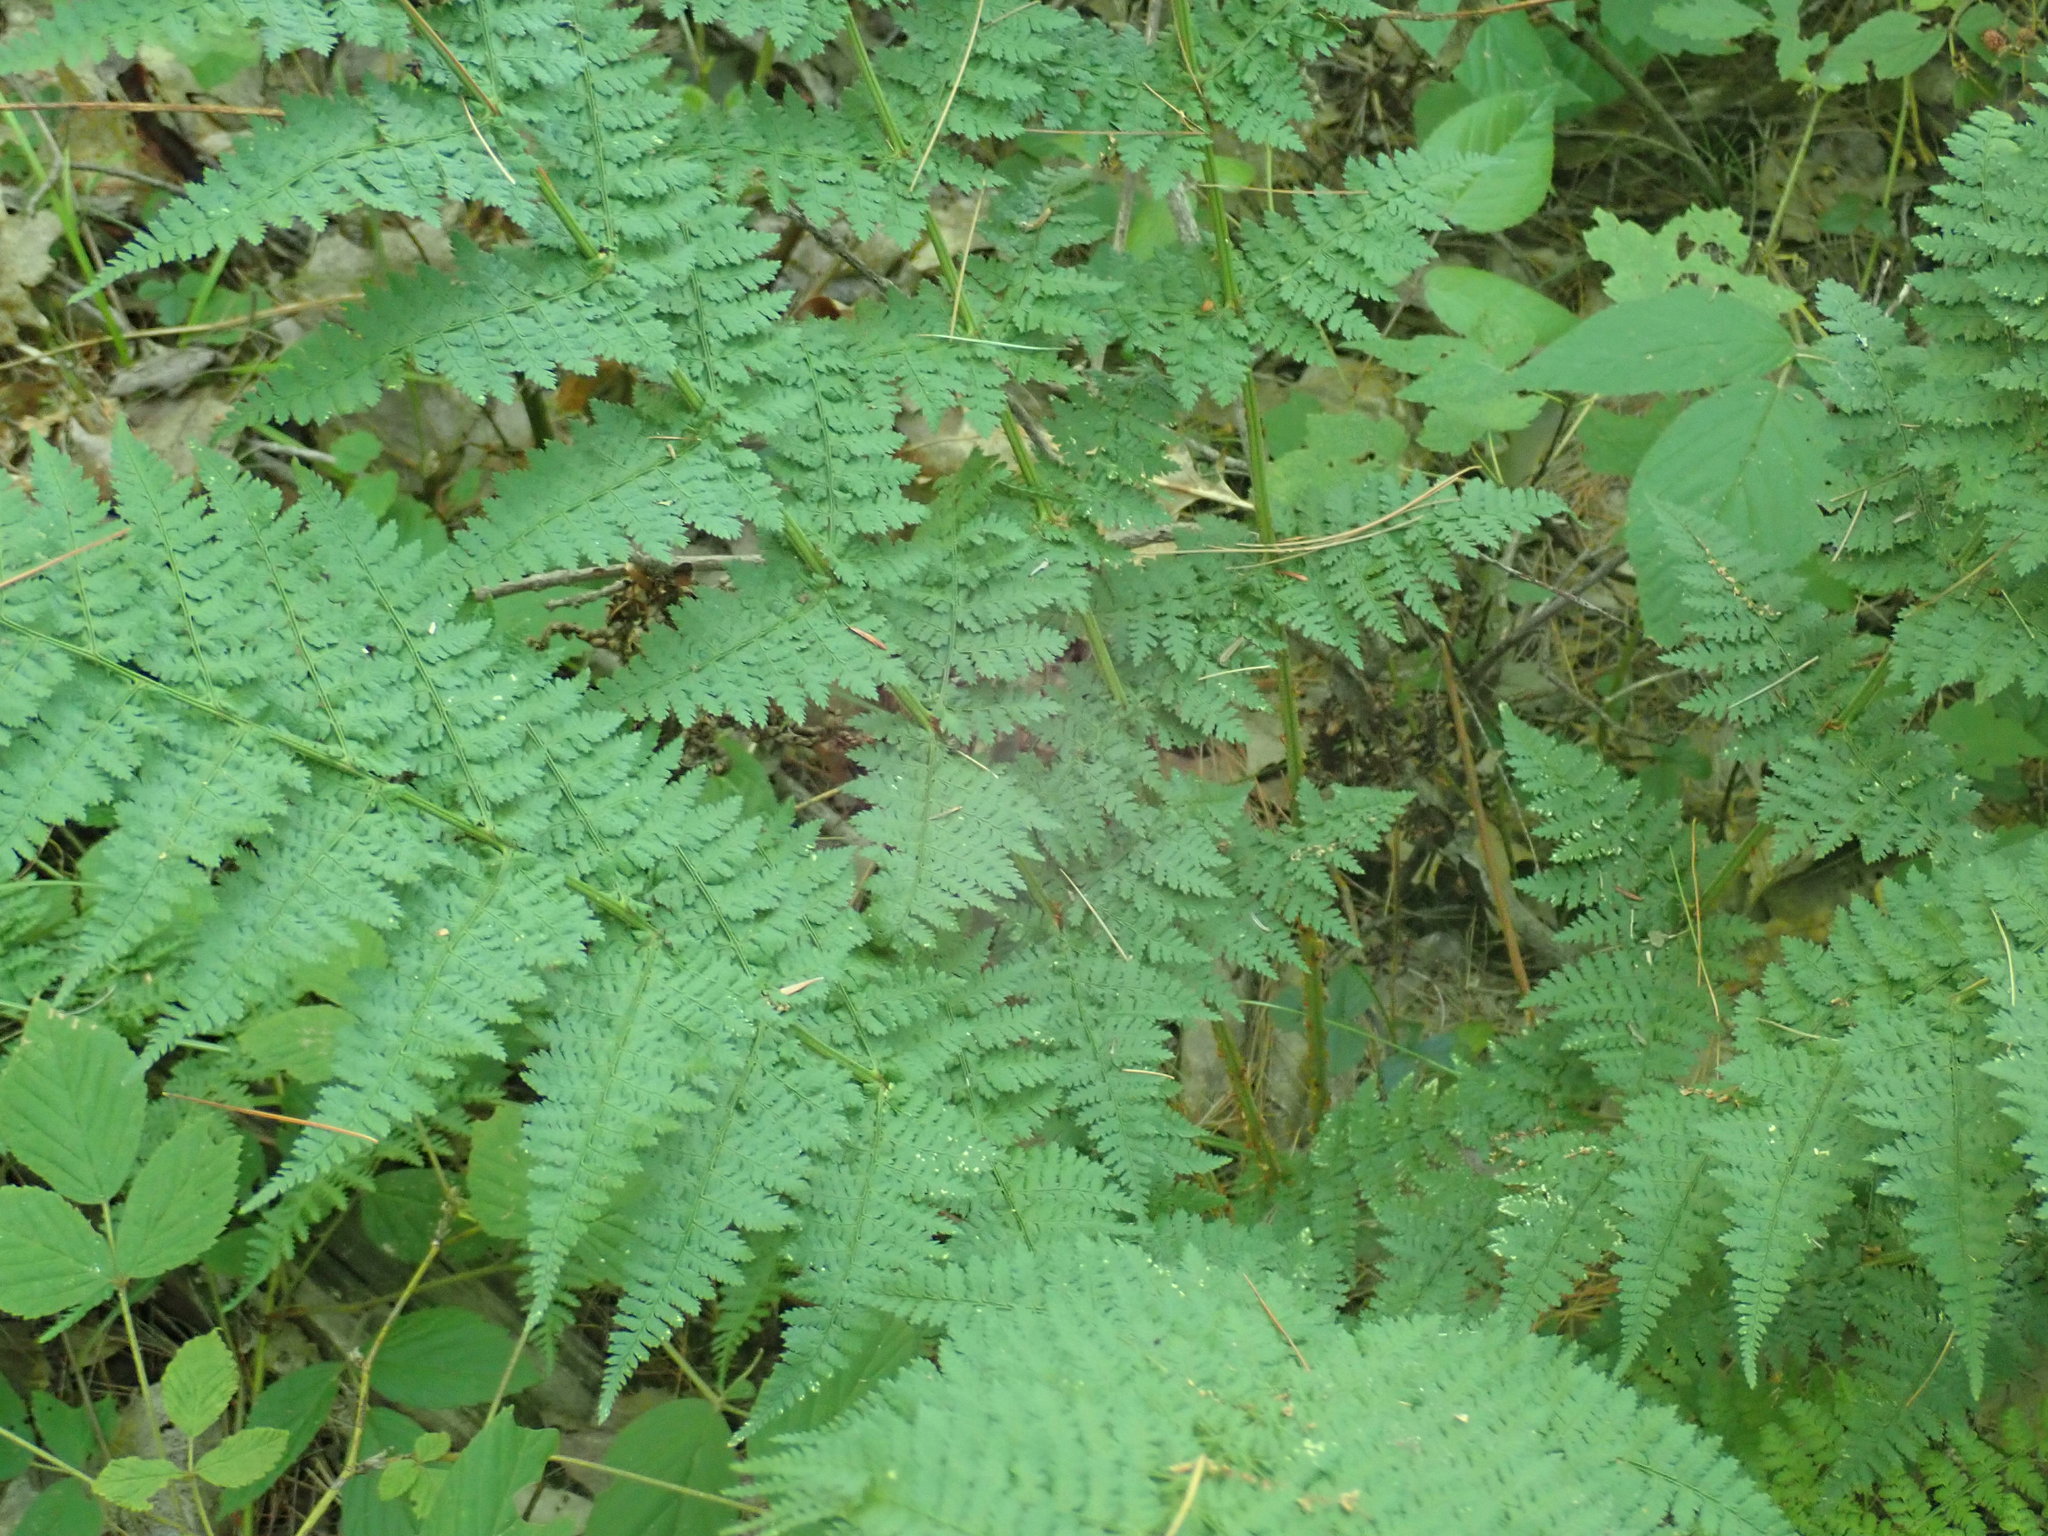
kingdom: Plantae
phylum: Tracheophyta
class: Polypodiopsida
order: Polypodiales
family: Dryopteridaceae
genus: Dryopteris
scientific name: Dryopteris intermedia
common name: Evergreen wood fern
